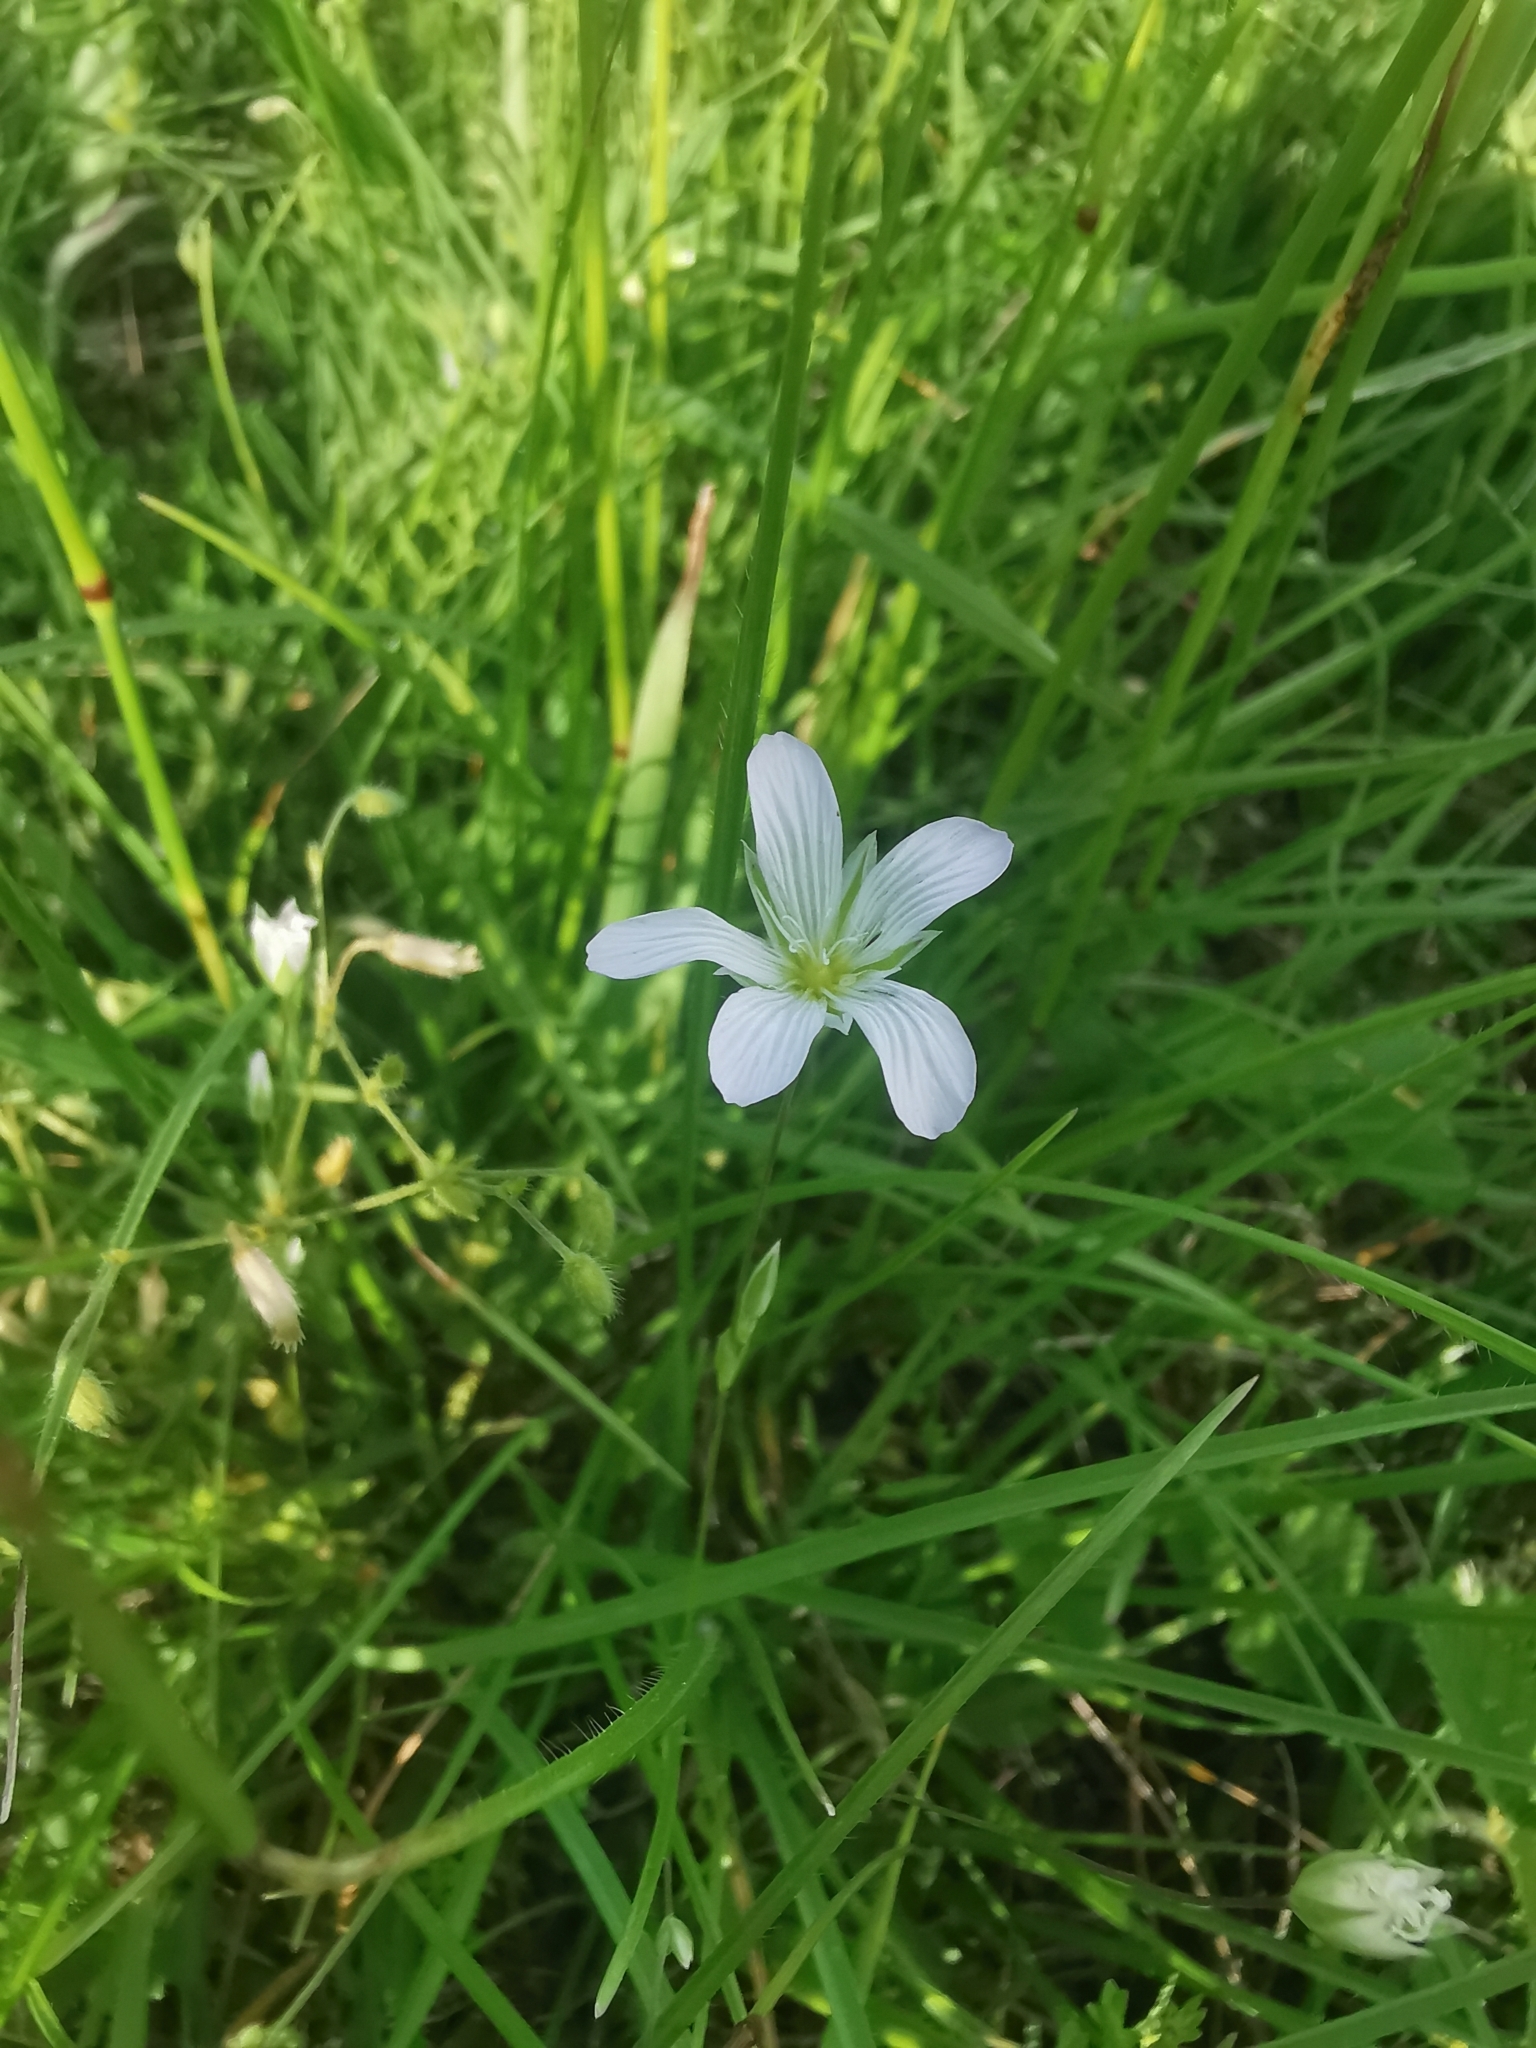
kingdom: Plantae
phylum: Tracheophyta
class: Magnoliopsida
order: Caryophyllales
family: Caryophyllaceae
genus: Moenchia
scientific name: Moenchia mantica
